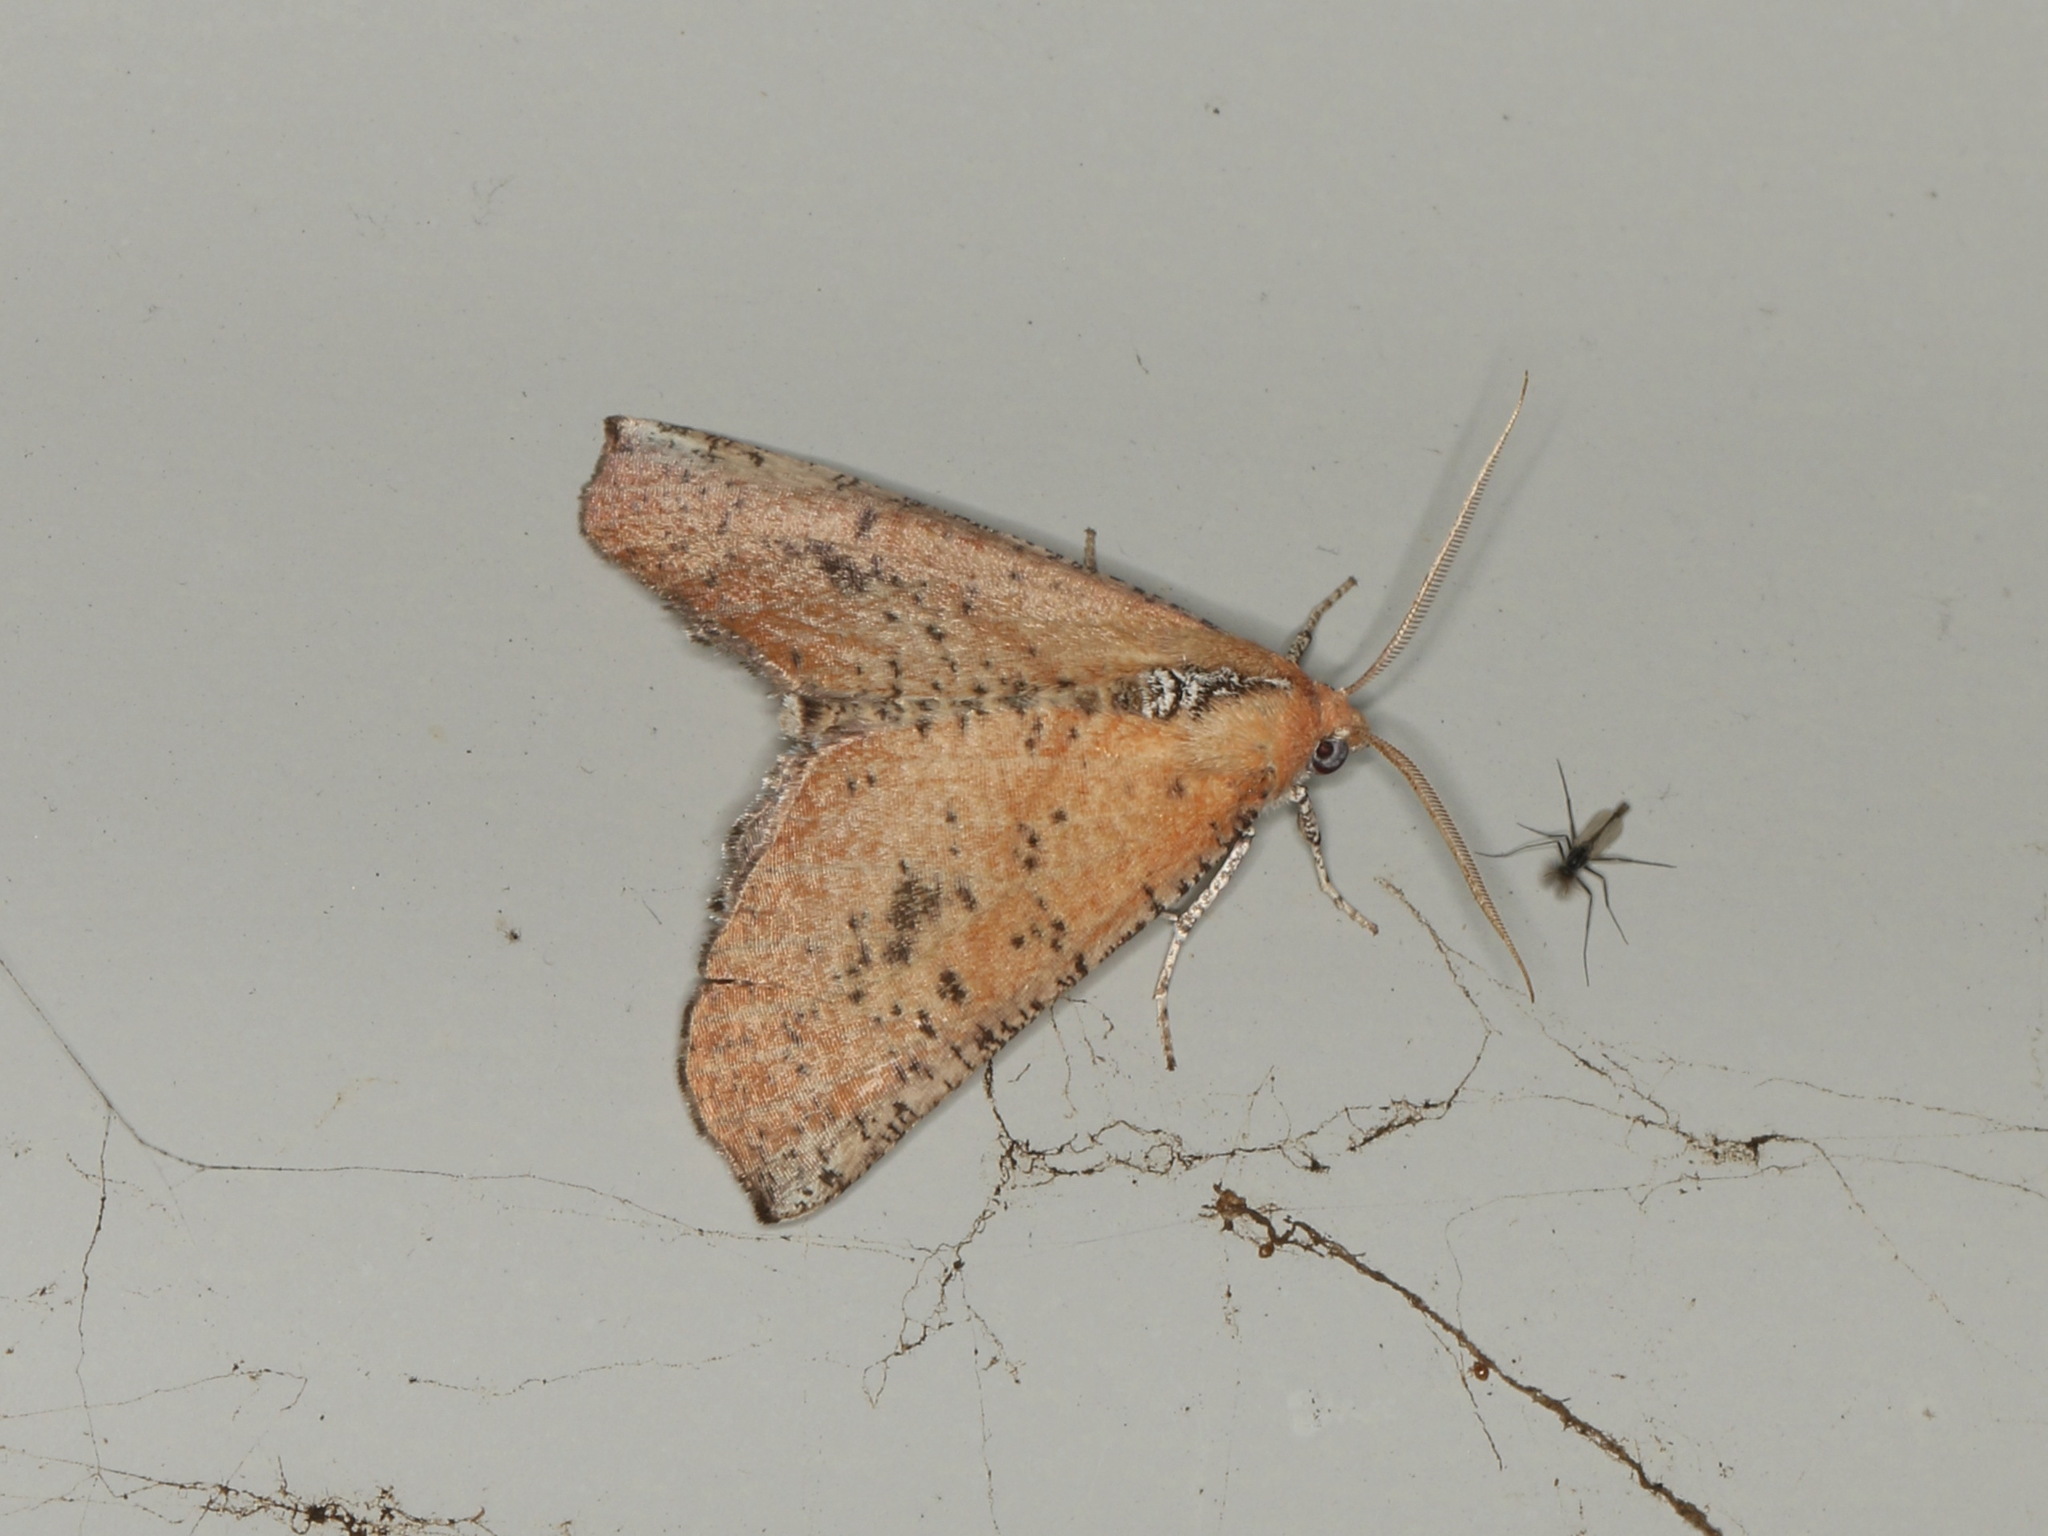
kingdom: Animalia
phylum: Arthropoda
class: Insecta
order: Lepidoptera
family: Geometridae
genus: Mnesampela
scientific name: Mnesampela arida
